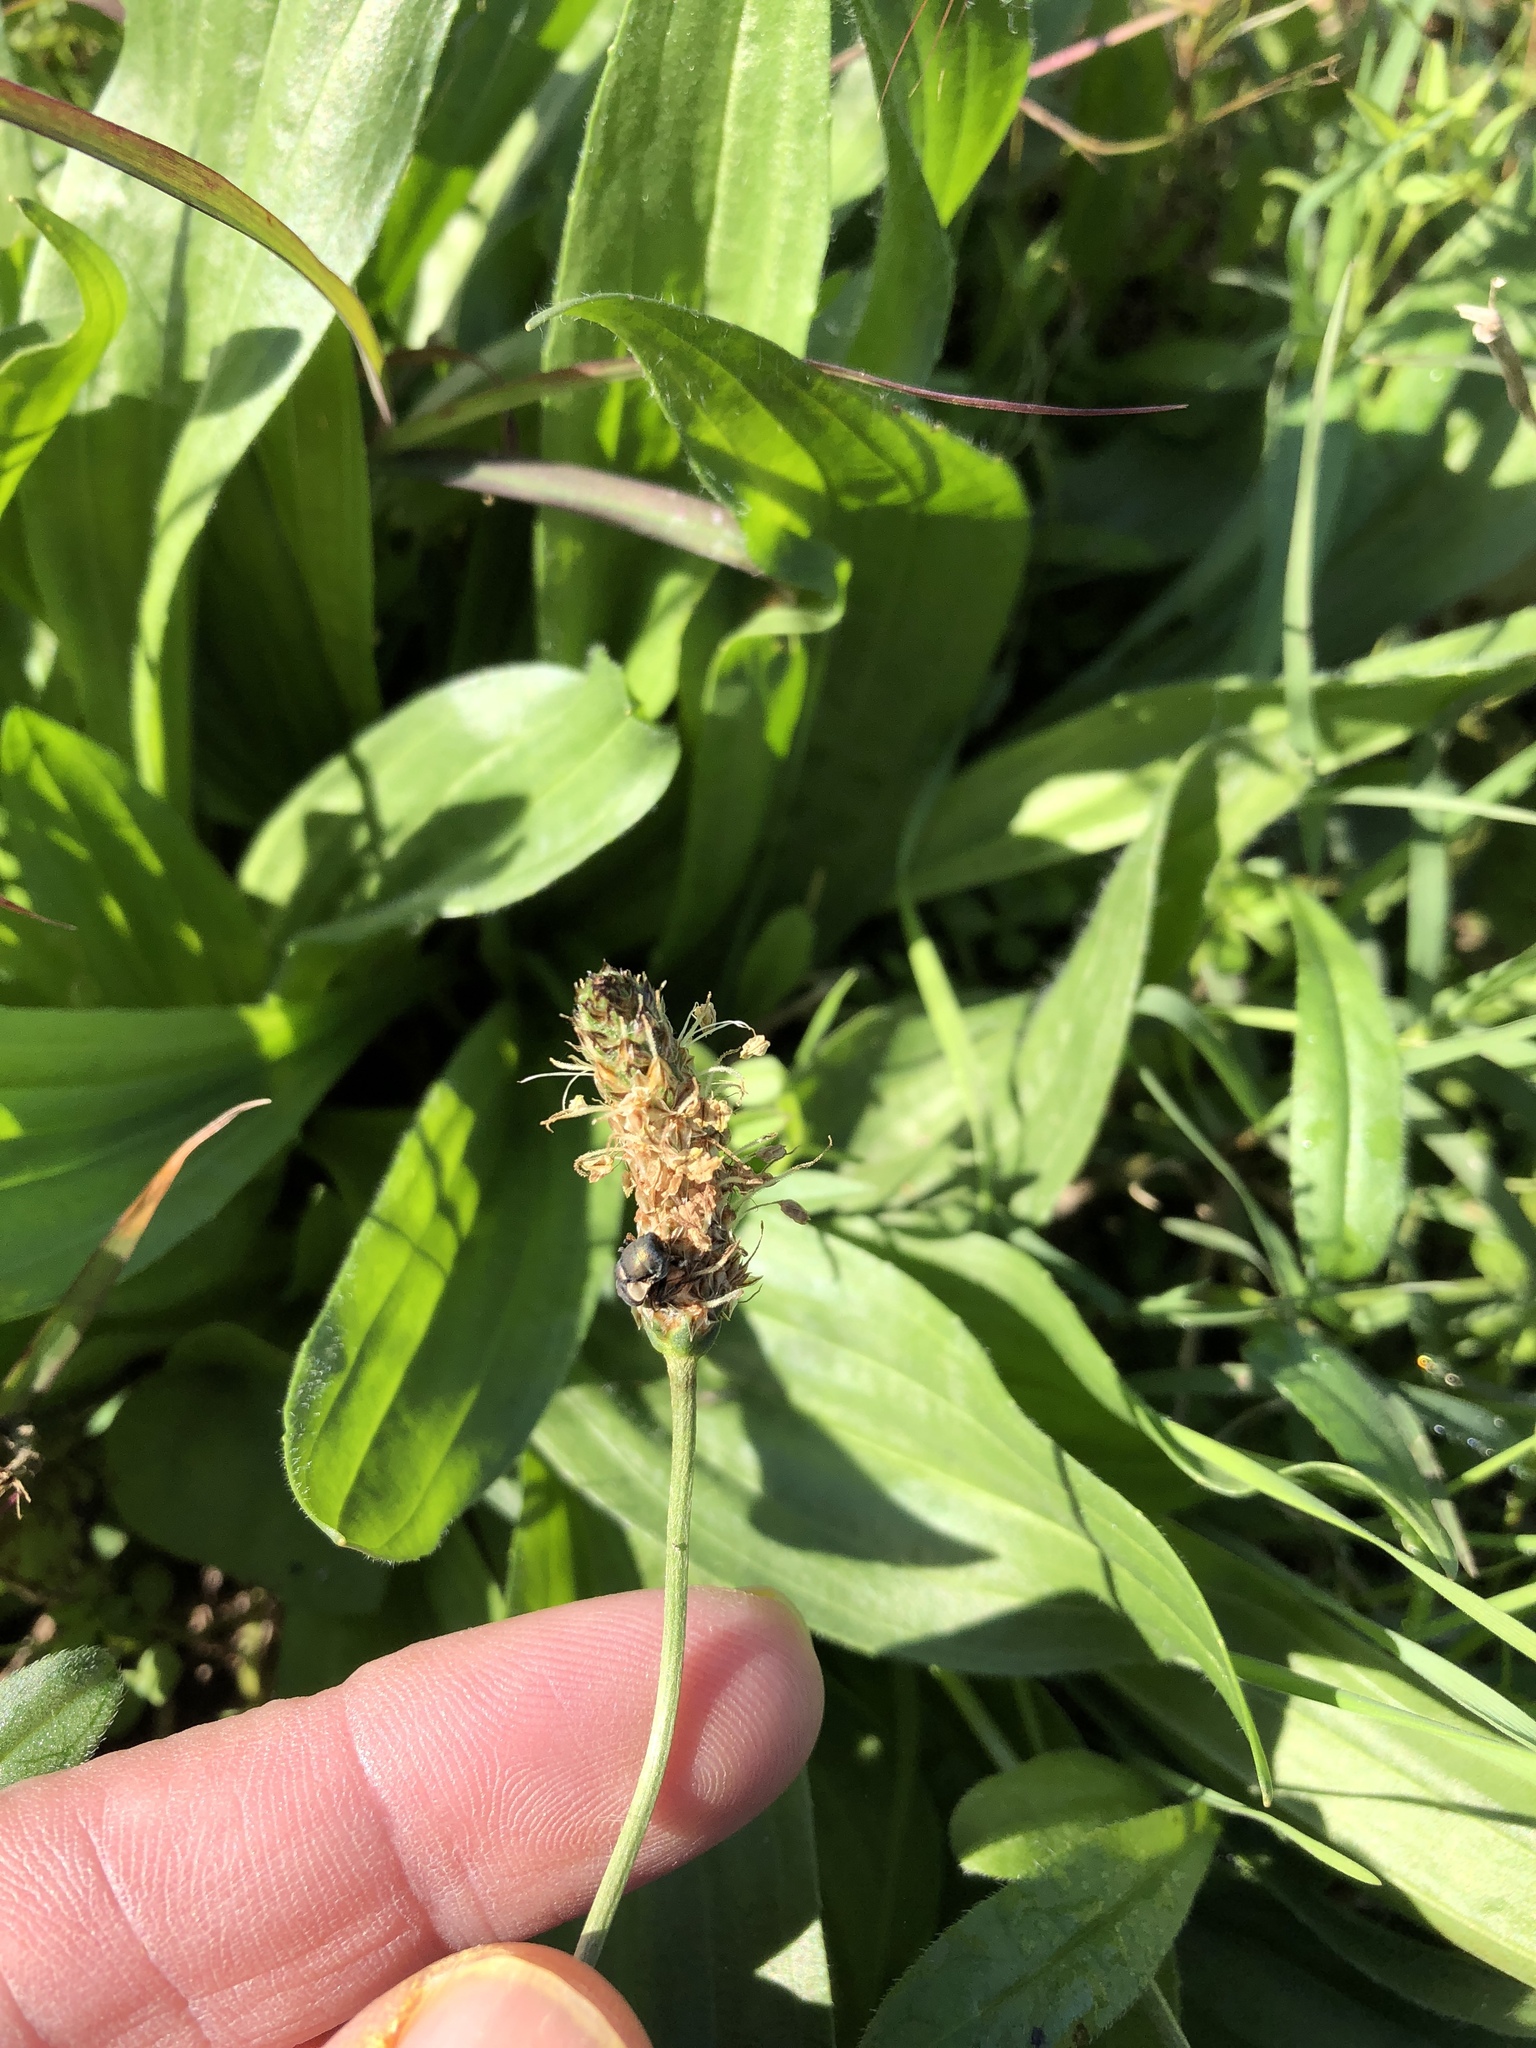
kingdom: Plantae
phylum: Tracheophyta
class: Magnoliopsida
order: Lamiales
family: Plantaginaceae
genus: Plantago
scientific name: Plantago lanceolata
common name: Ribwort plantain
